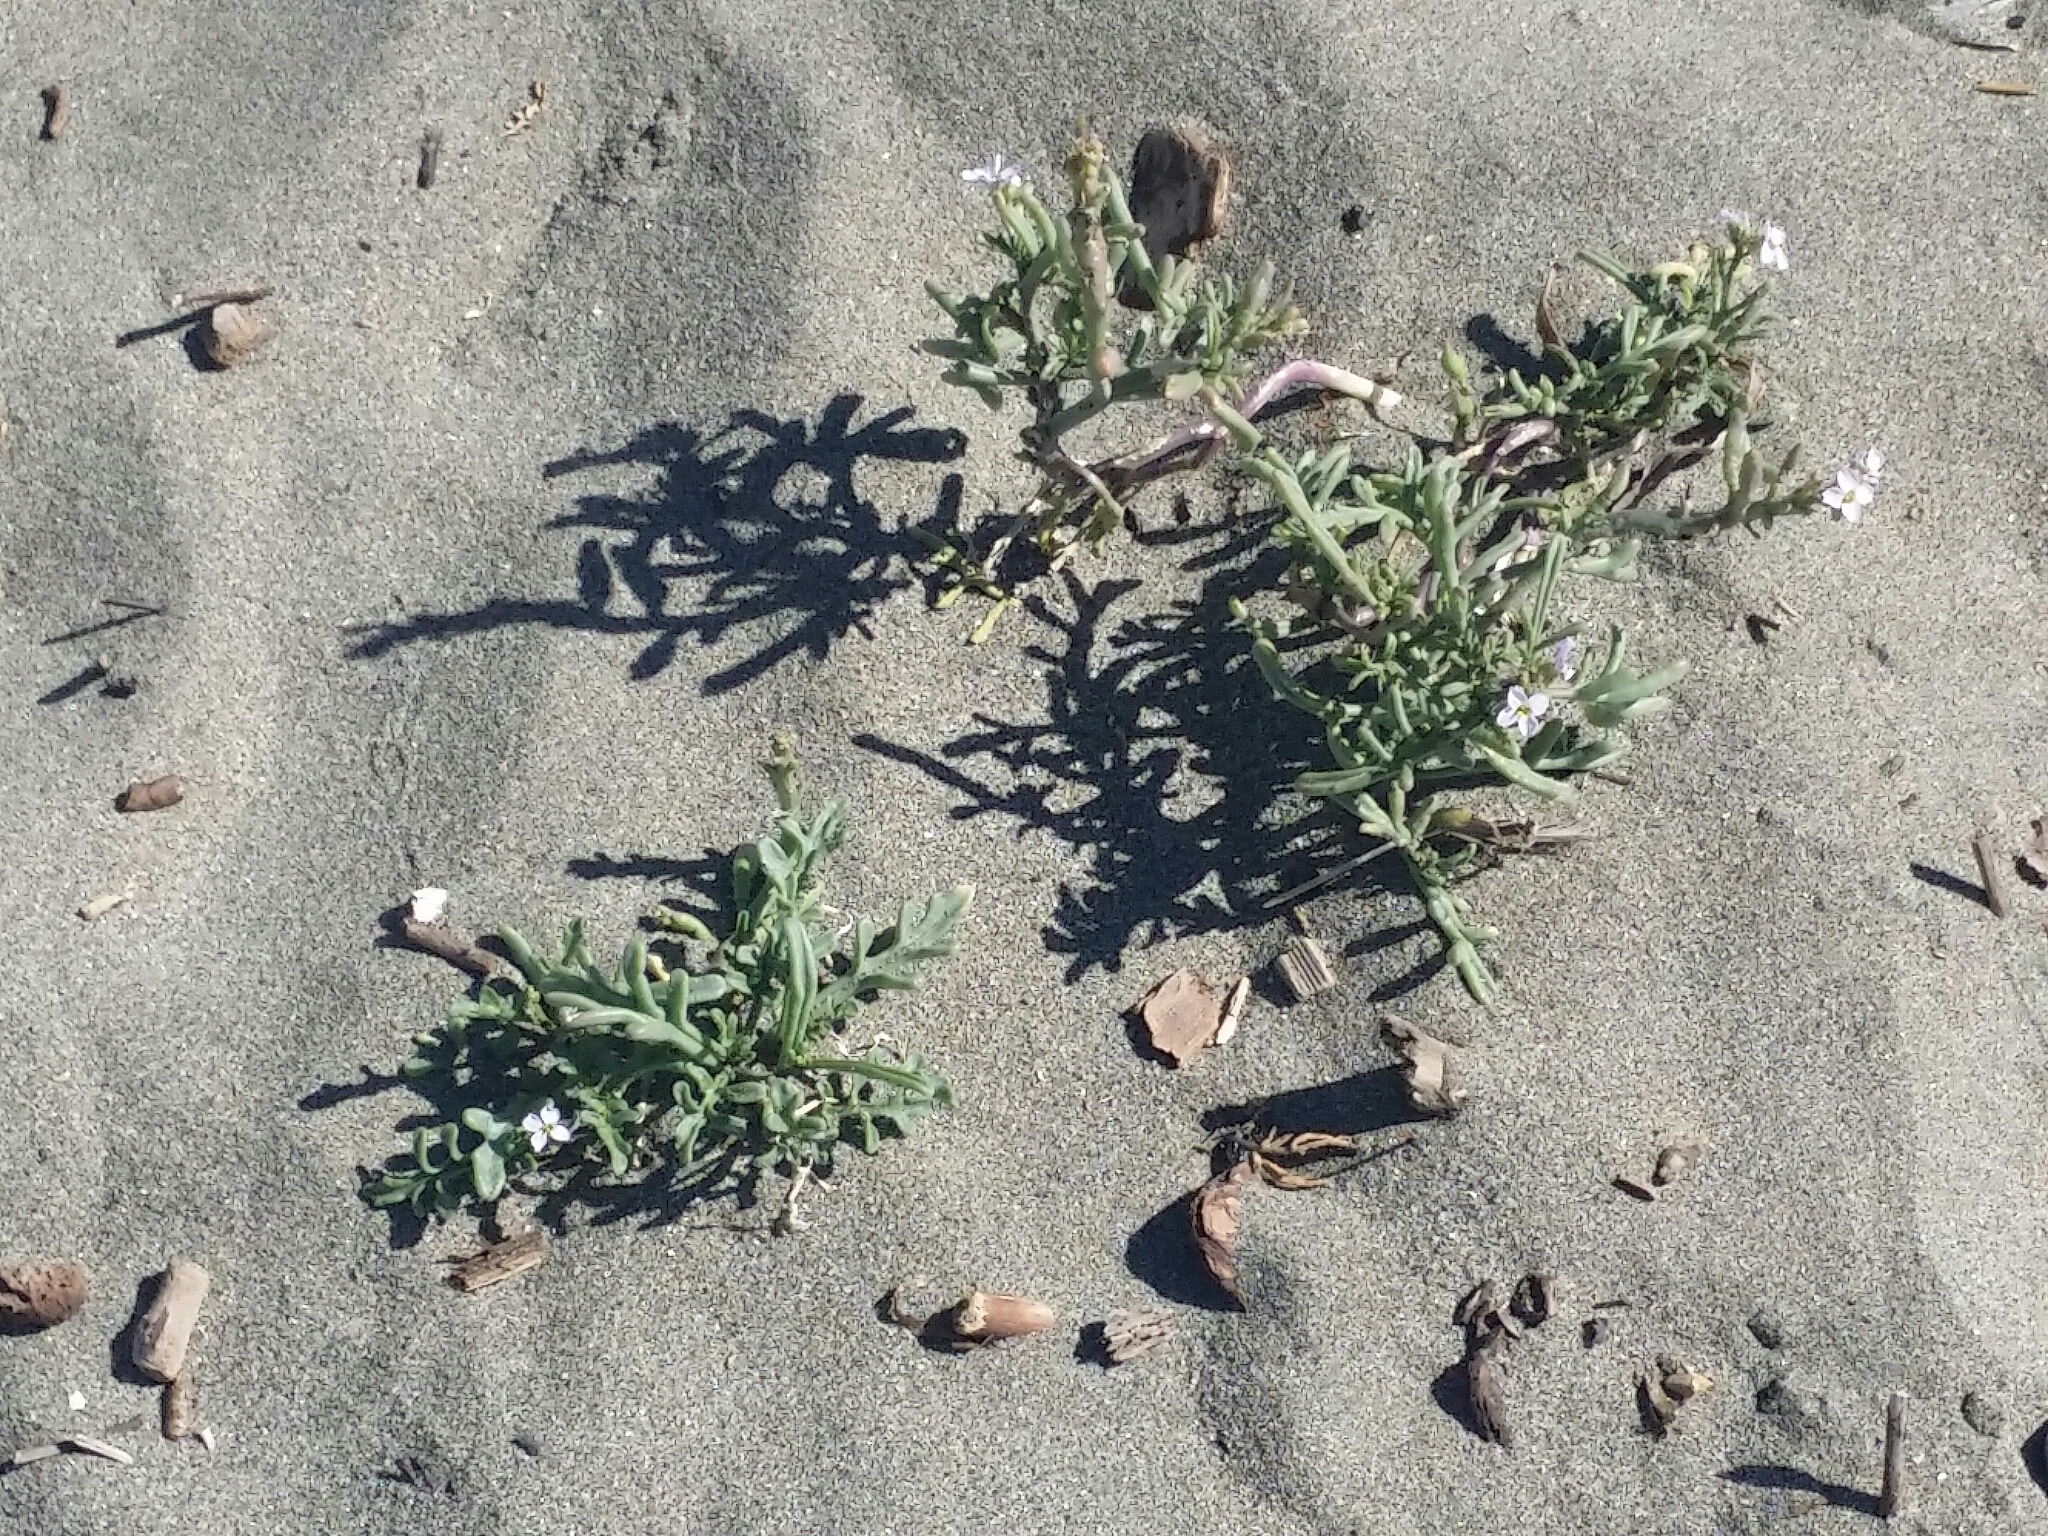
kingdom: Plantae
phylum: Tracheophyta
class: Magnoliopsida
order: Brassicales
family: Brassicaceae
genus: Cakile
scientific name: Cakile maritima
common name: Sea rocket
